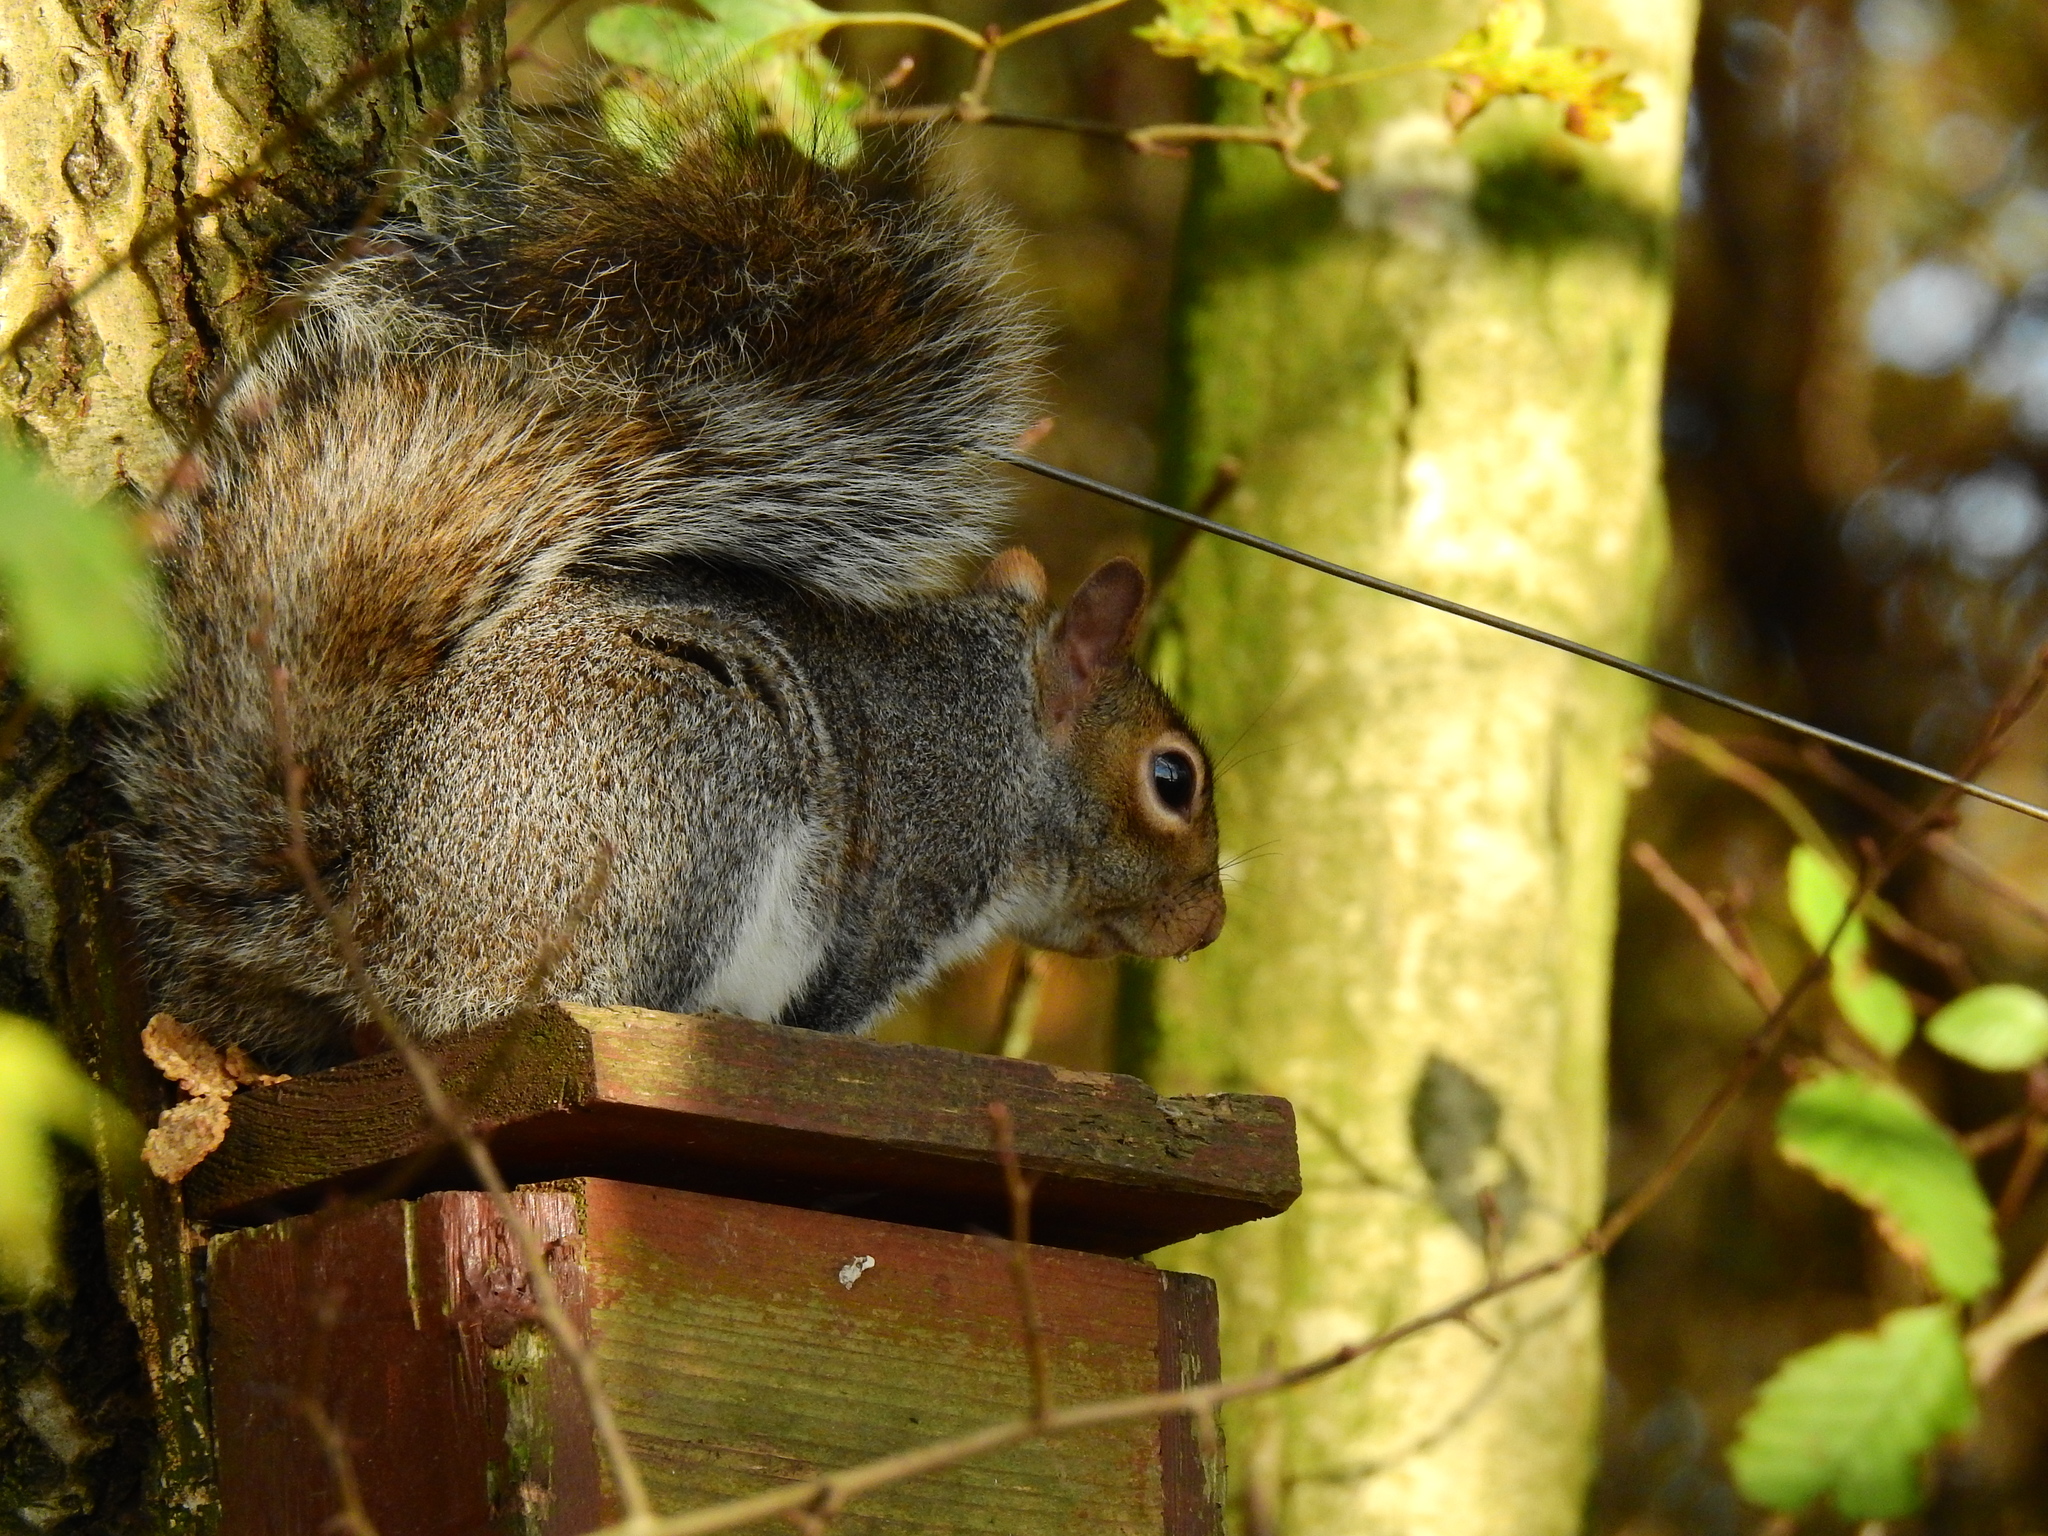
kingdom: Animalia
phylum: Chordata
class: Mammalia
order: Rodentia
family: Sciuridae
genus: Sciurus
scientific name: Sciurus carolinensis
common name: Eastern gray squirrel
